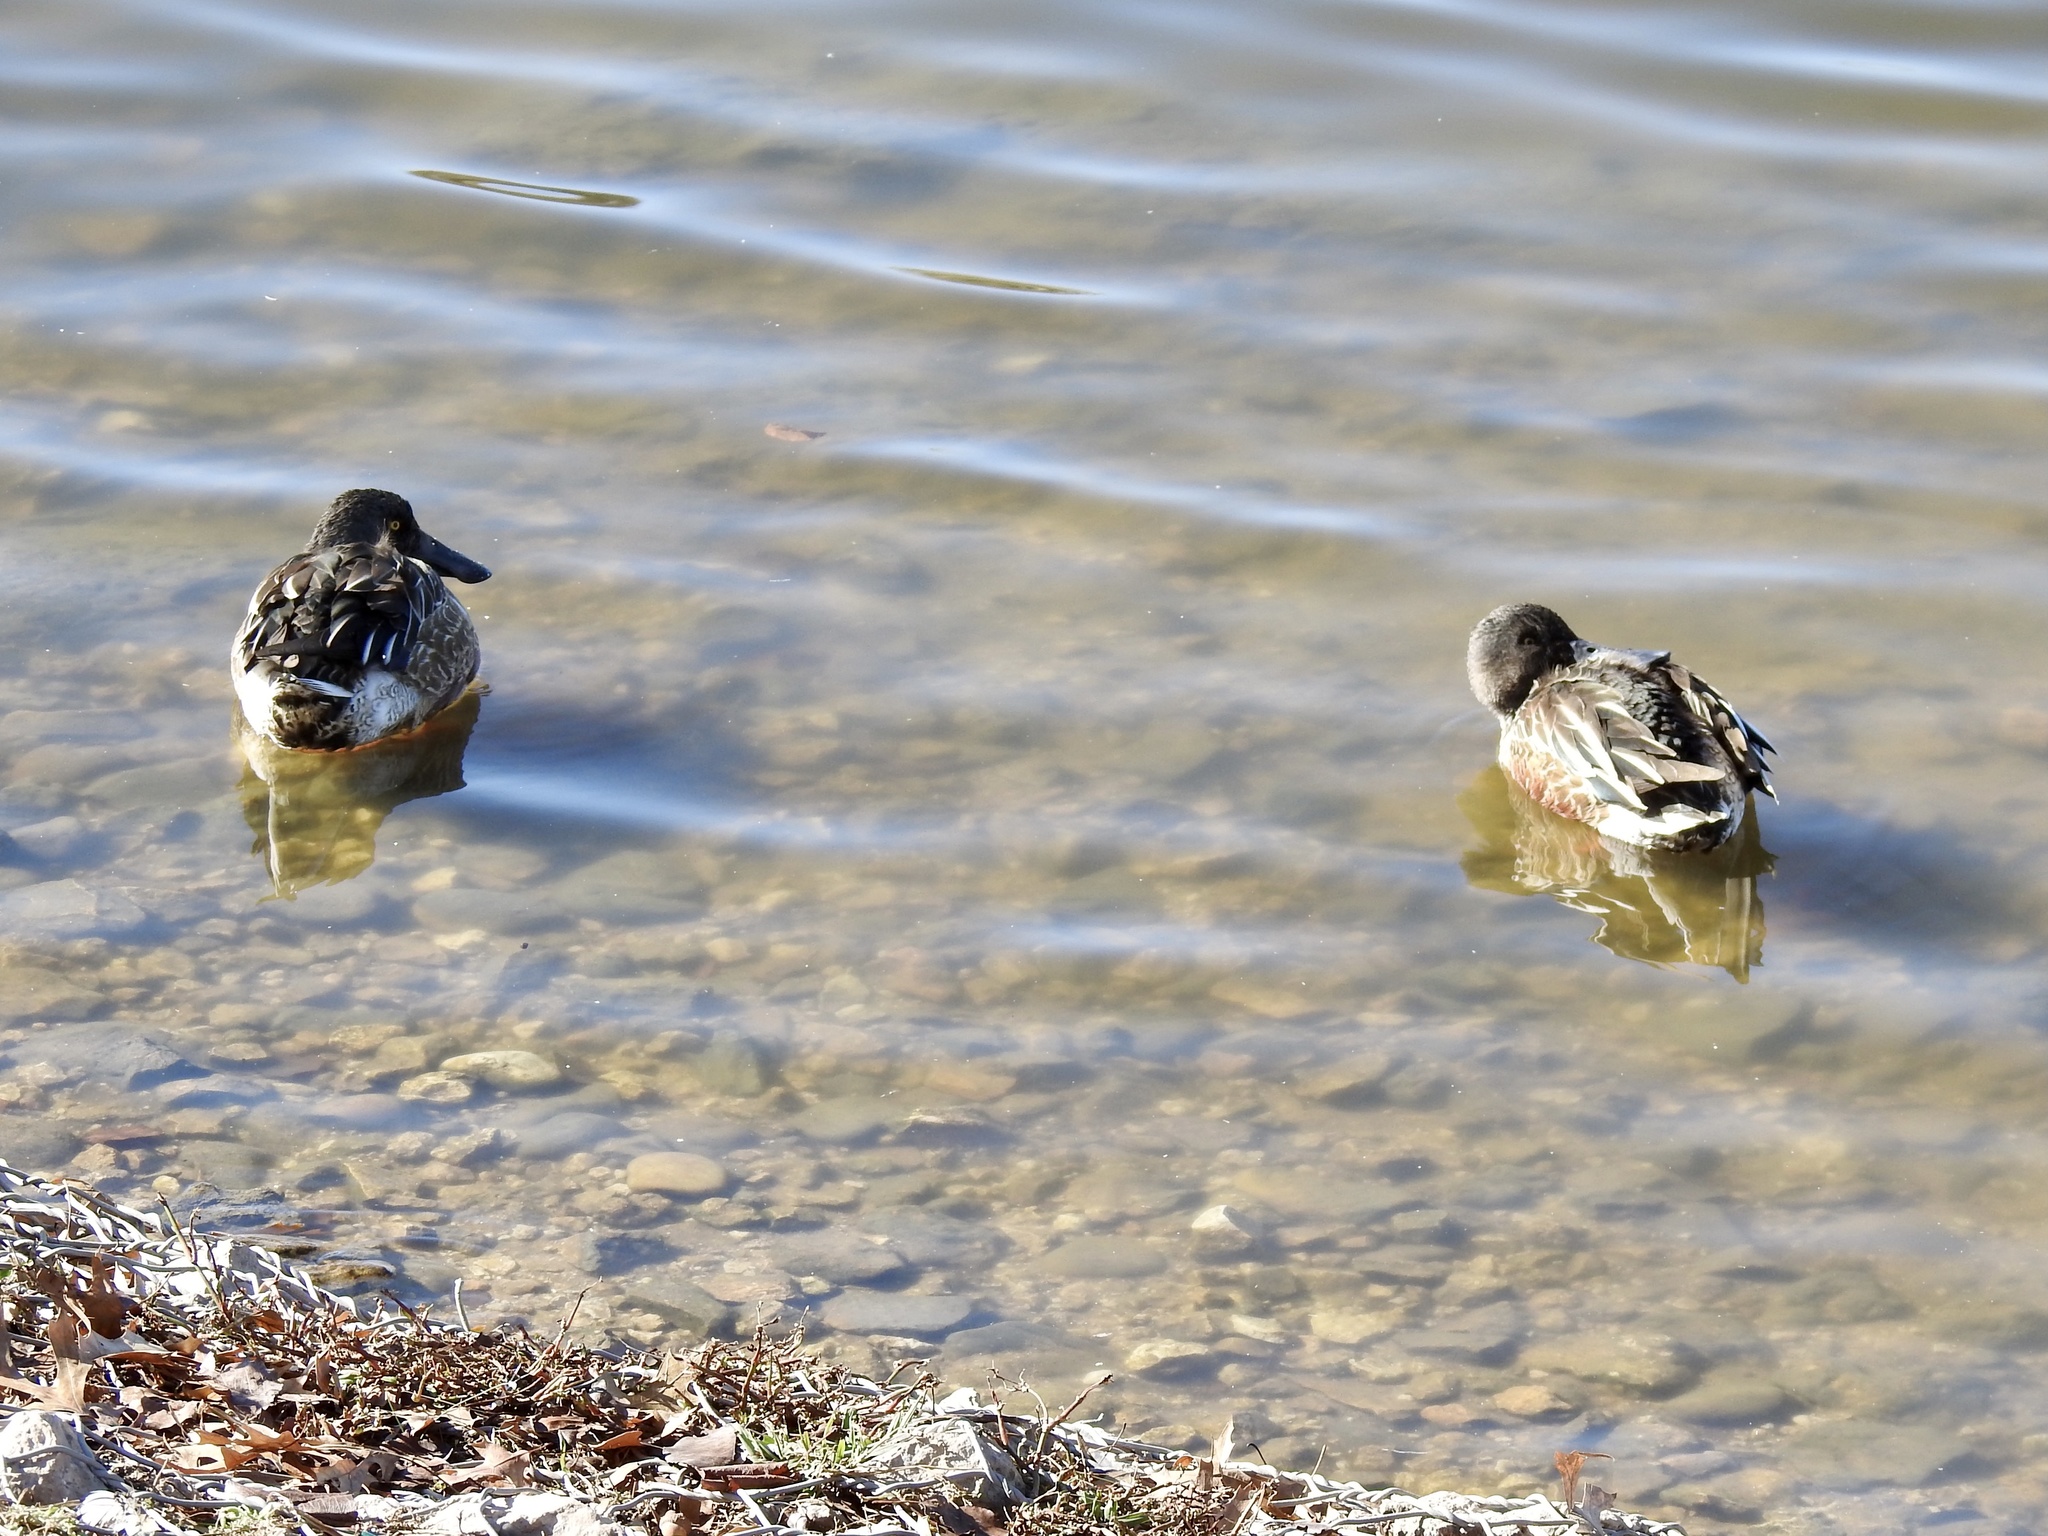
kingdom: Animalia
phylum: Chordata
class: Aves
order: Anseriformes
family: Anatidae
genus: Spatula
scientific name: Spatula clypeata
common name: Northern shoveler
